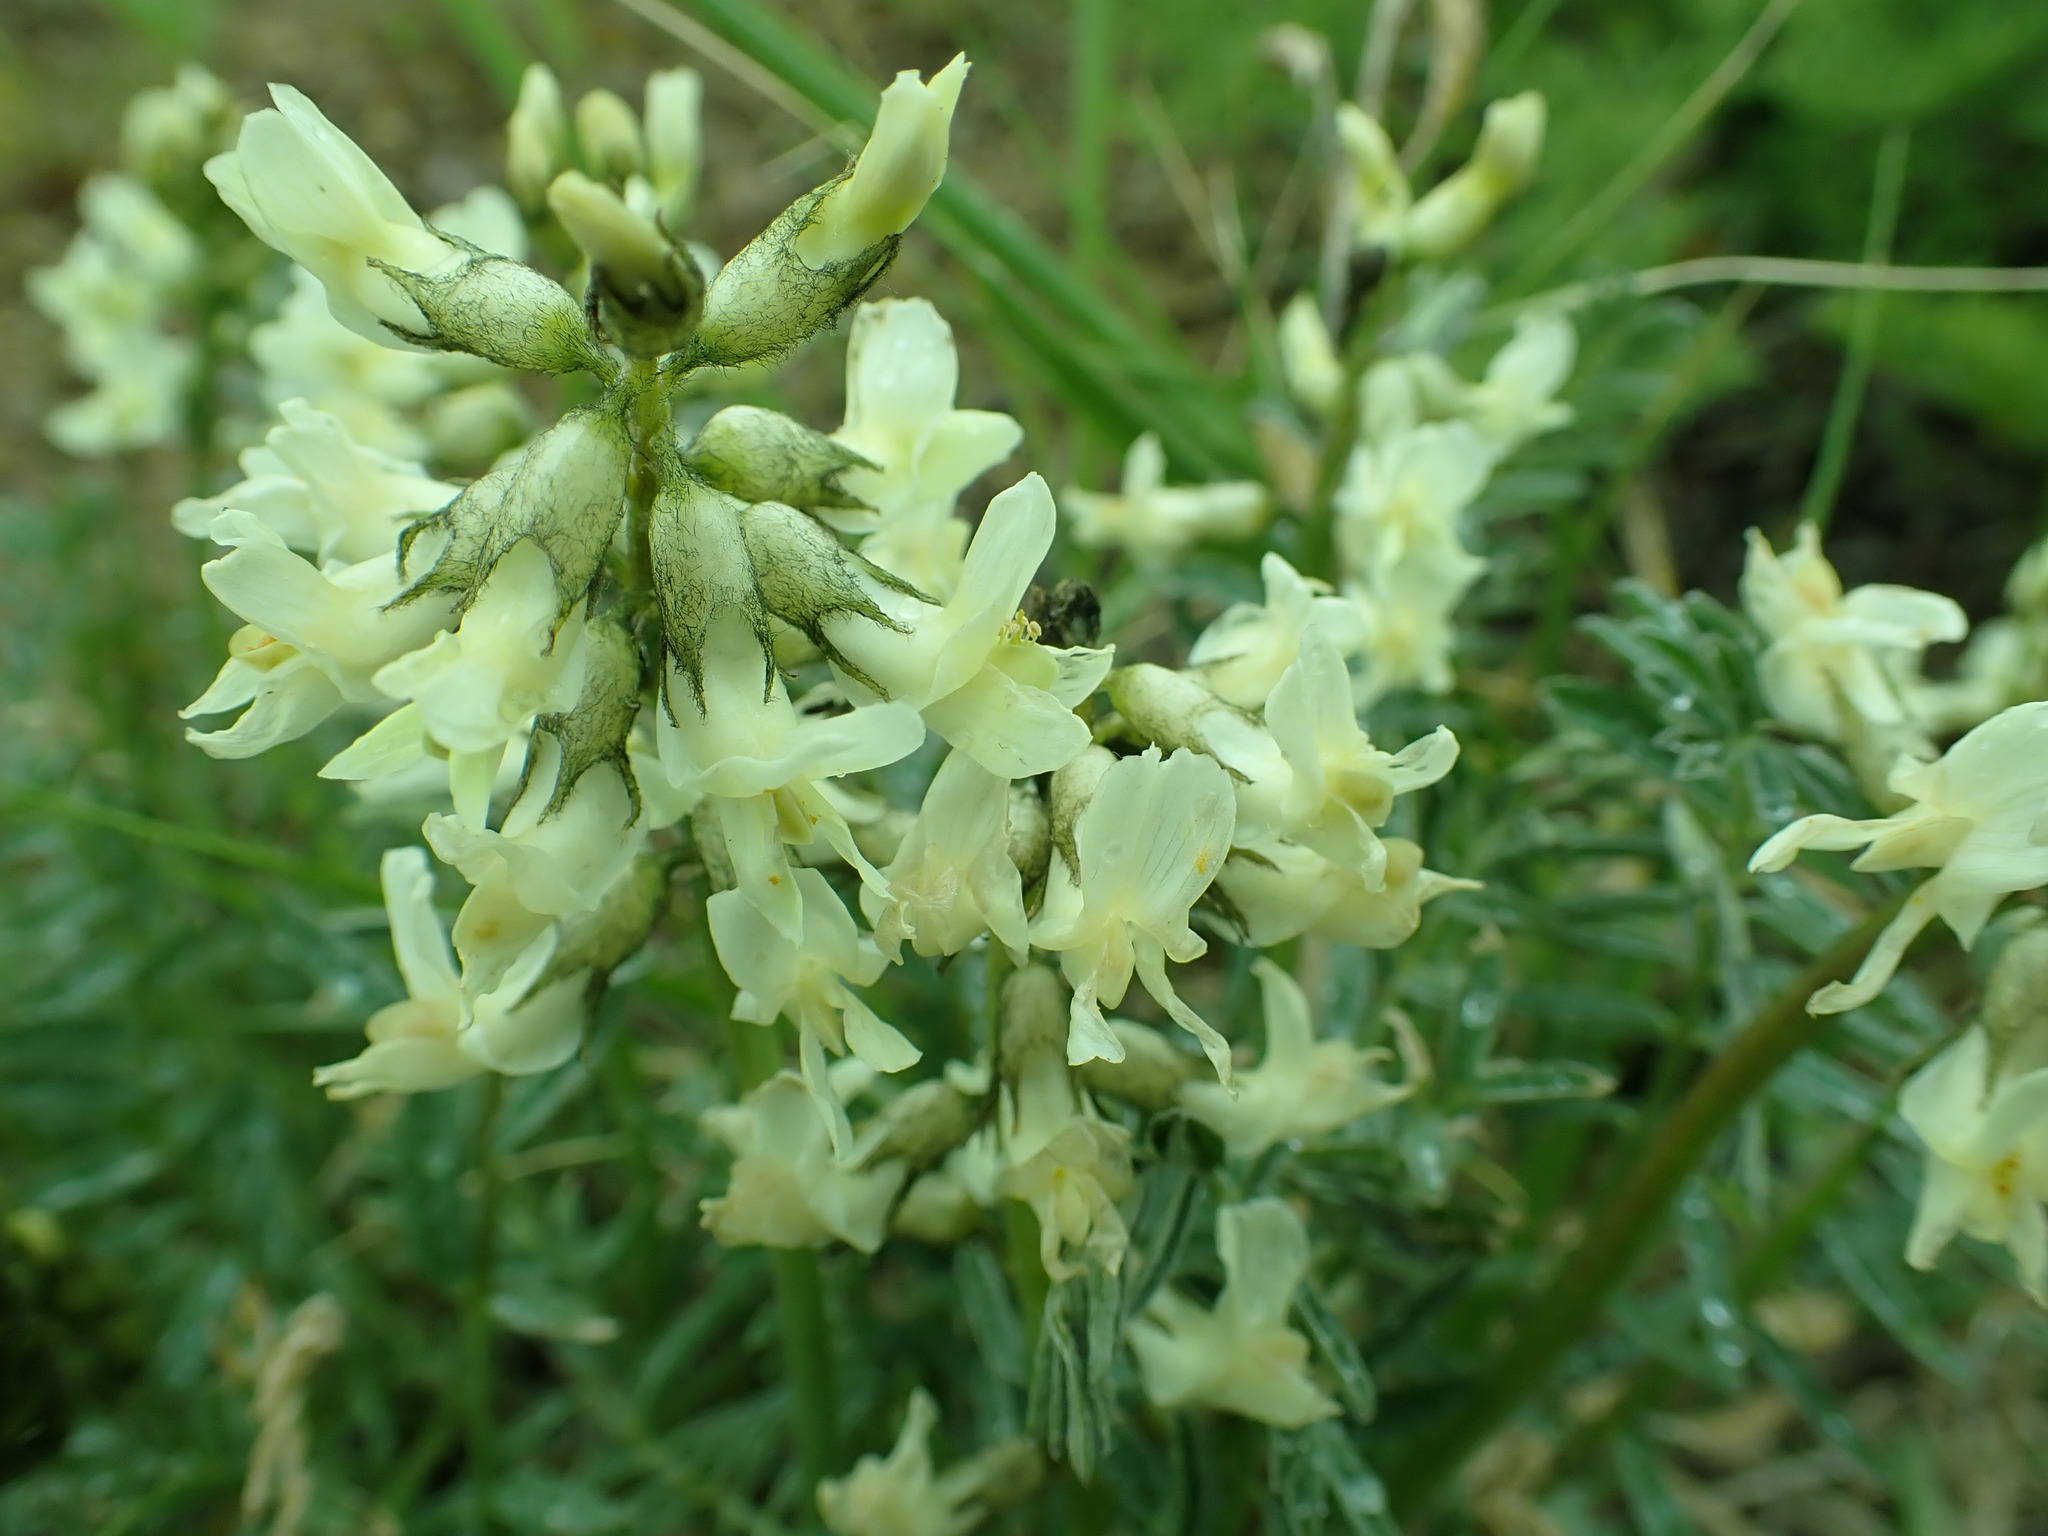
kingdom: Plantae
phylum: Tracheophyta
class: Magnoliopsida
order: Fabales
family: Fabaceae
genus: Astragalus
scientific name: Astragalus leibergii
